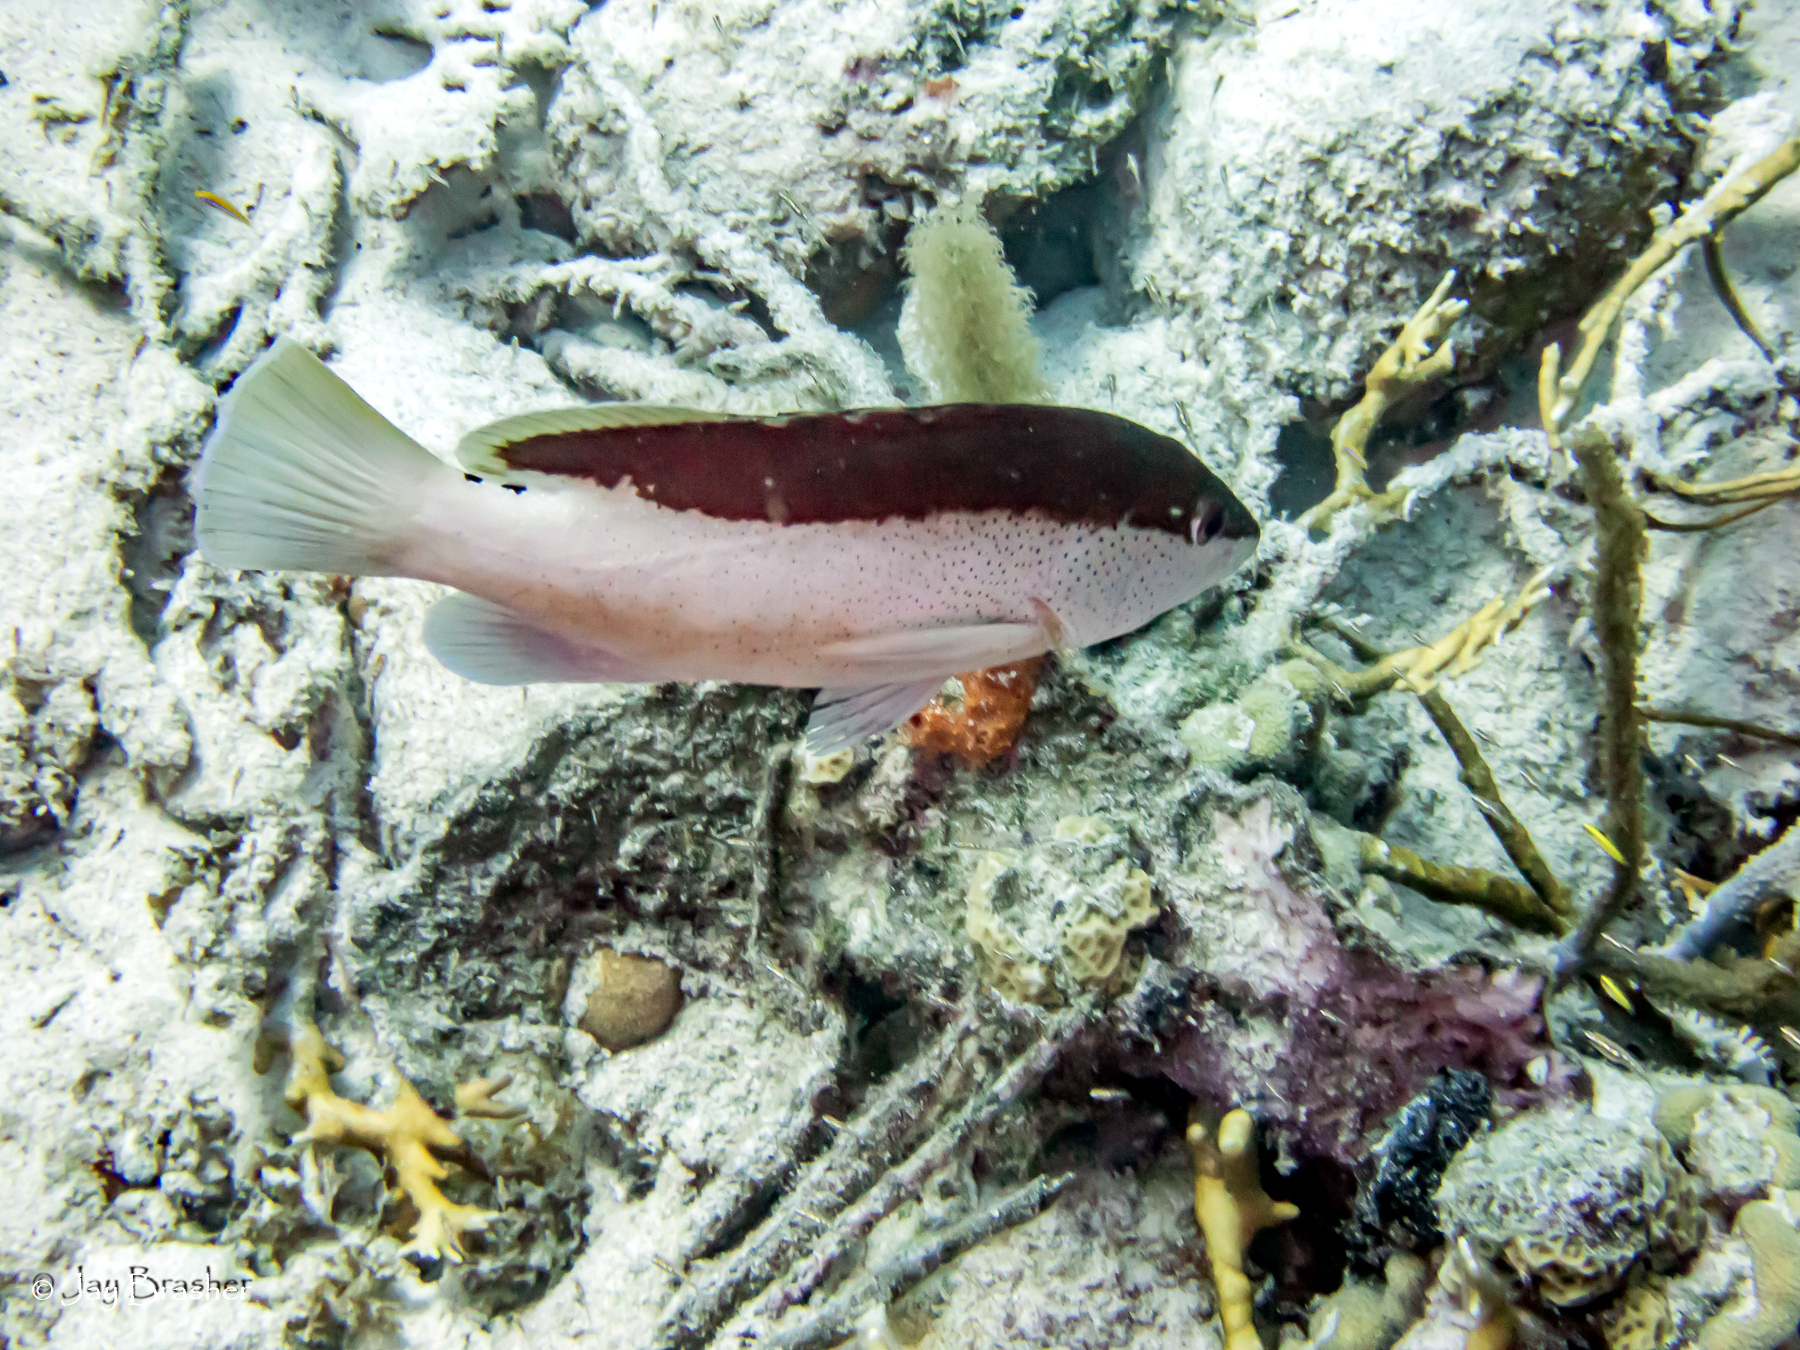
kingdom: Animalia
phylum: Chordata
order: Perciformes
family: Serranidae
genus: Cephalopholis
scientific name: Cephalopholis fulva
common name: Butterfish
